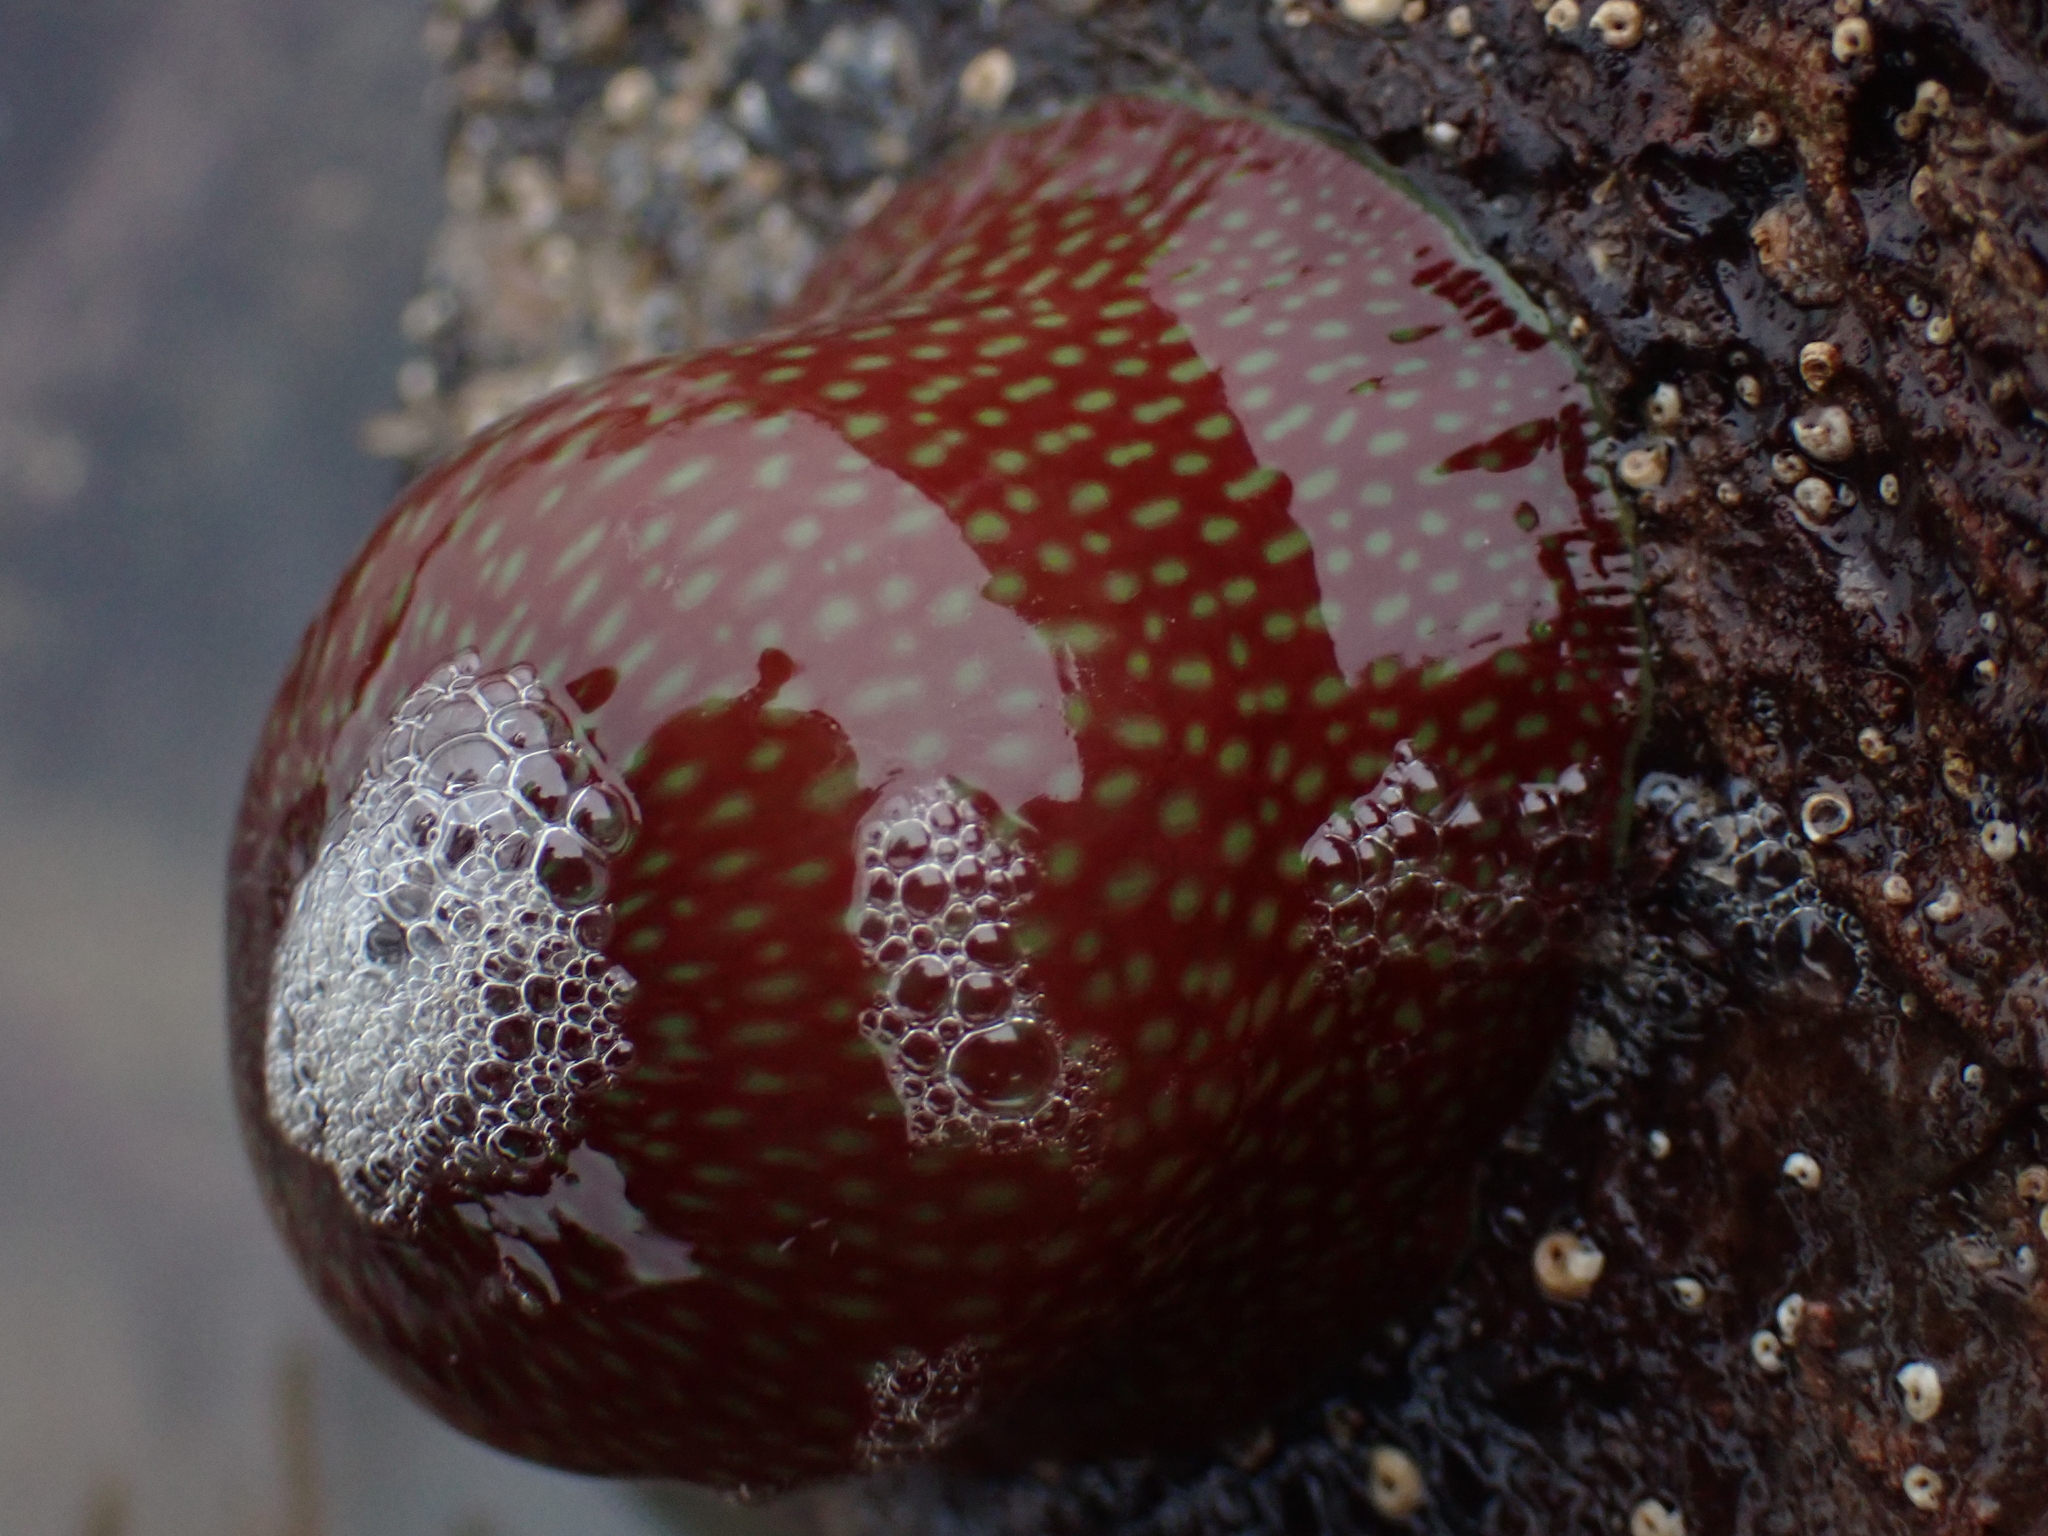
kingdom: Animalia
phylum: Cnidaria
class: Anthozoa
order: Actiniaria
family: Actiniidae
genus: Actinia
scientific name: Actinia fragacea
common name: Strawberry anemone
